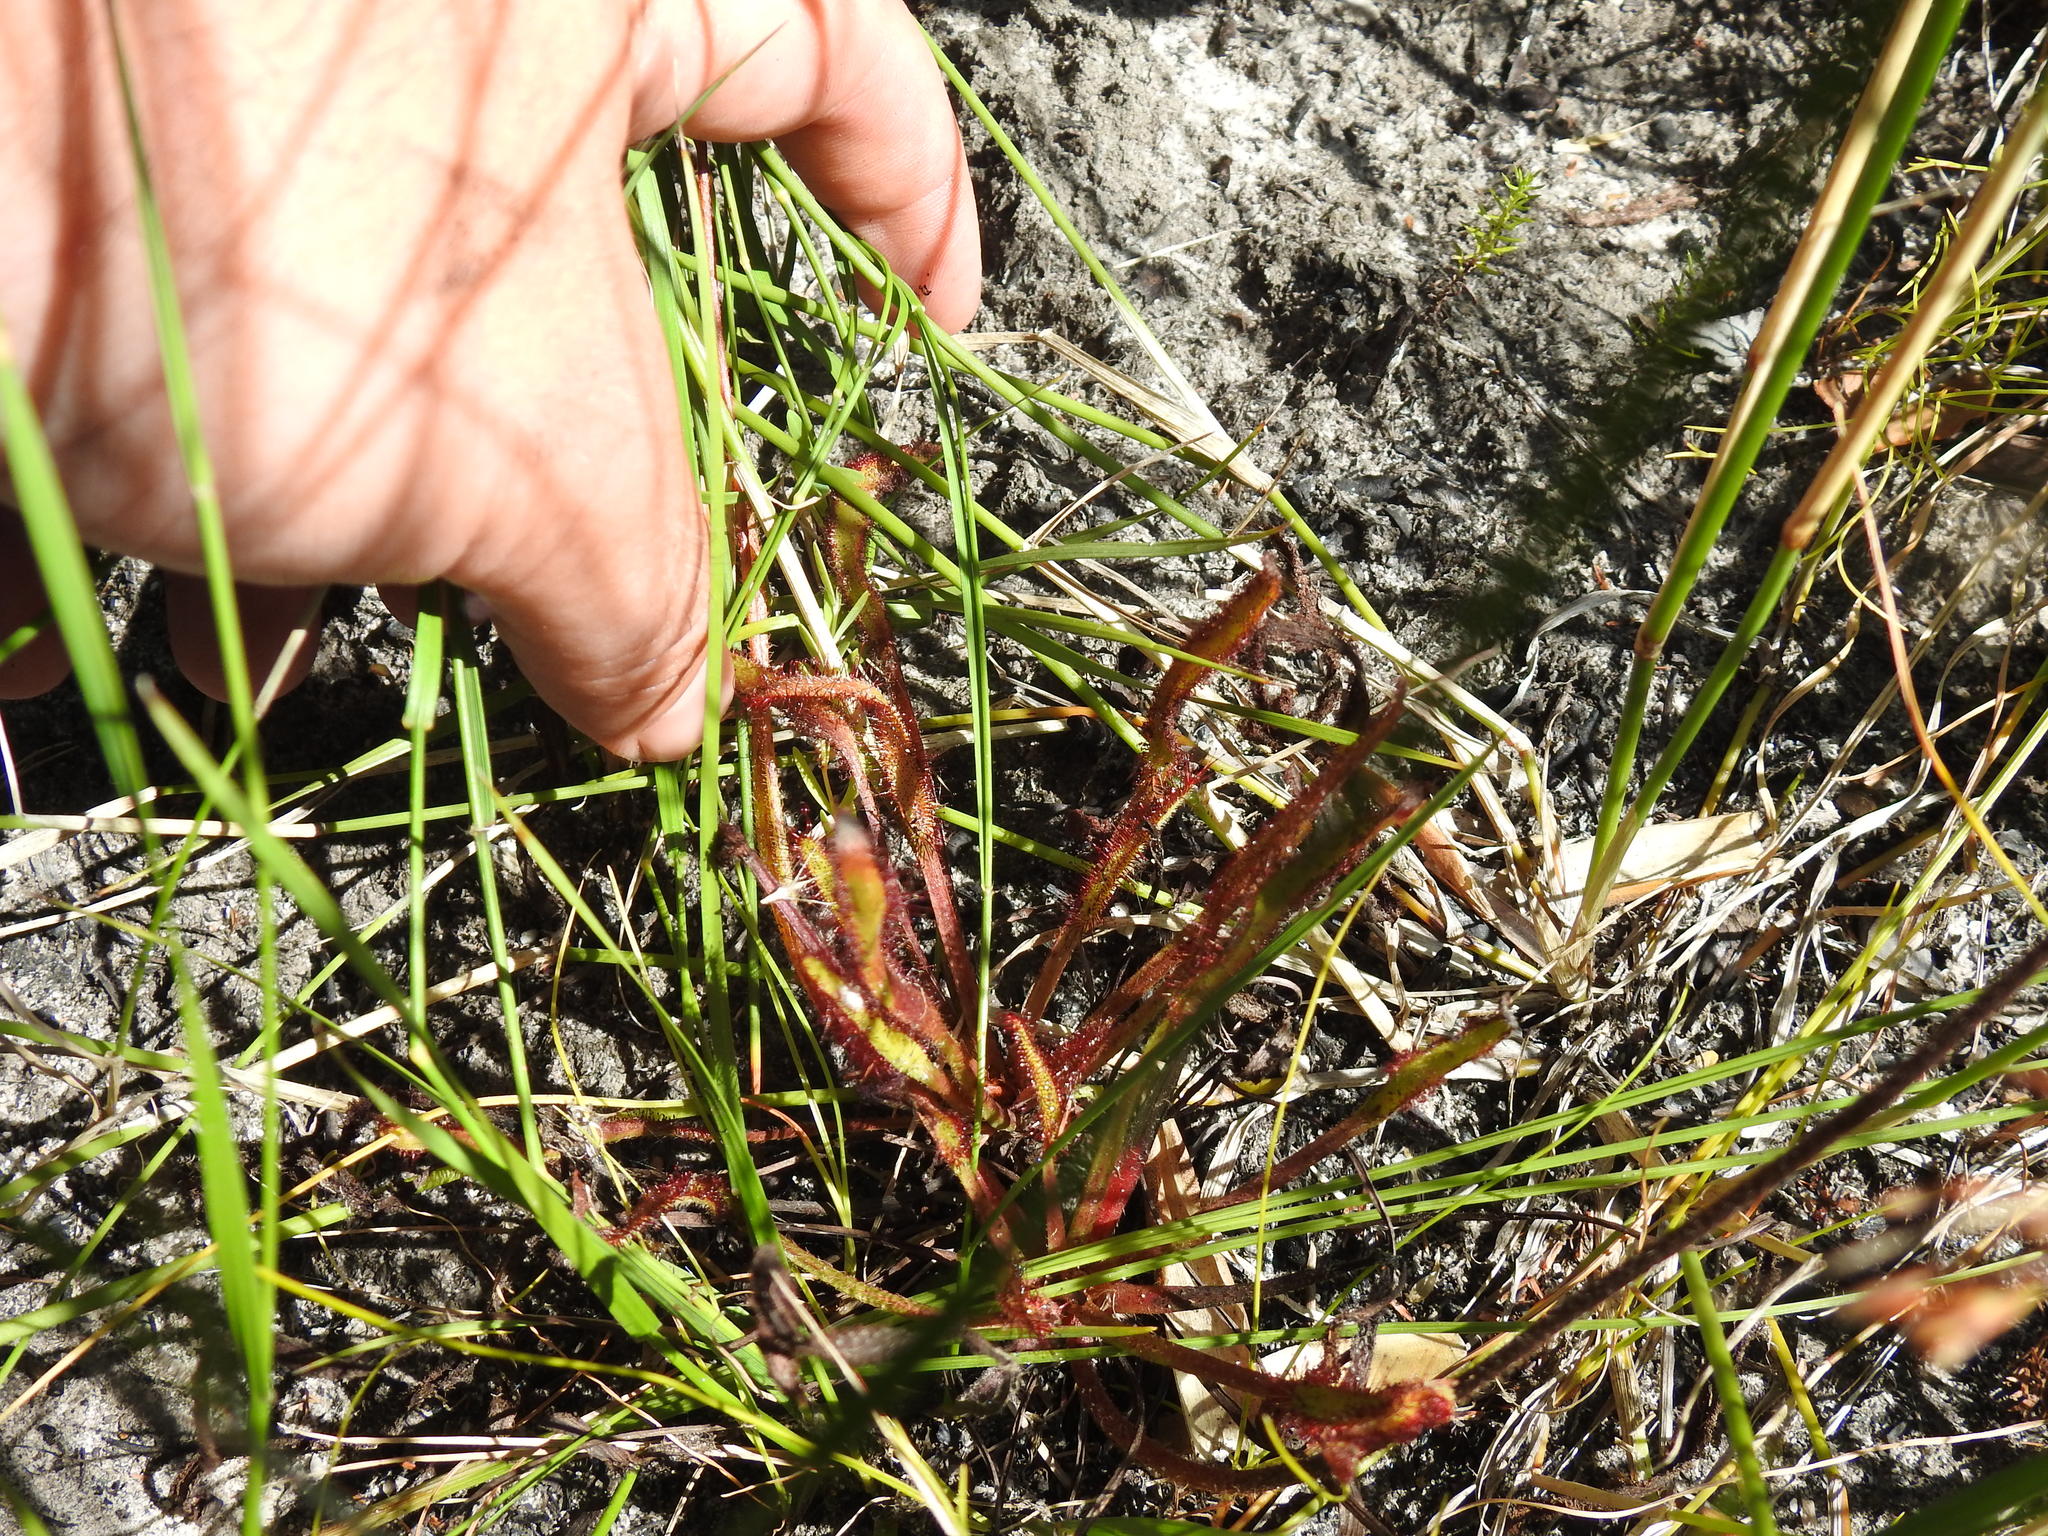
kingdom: Plantae
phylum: Tracheophyta
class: Magnoliopsida
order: Caryophyllales
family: Droseraceae
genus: Drosera
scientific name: Drosera capensis
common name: Cape sundew
